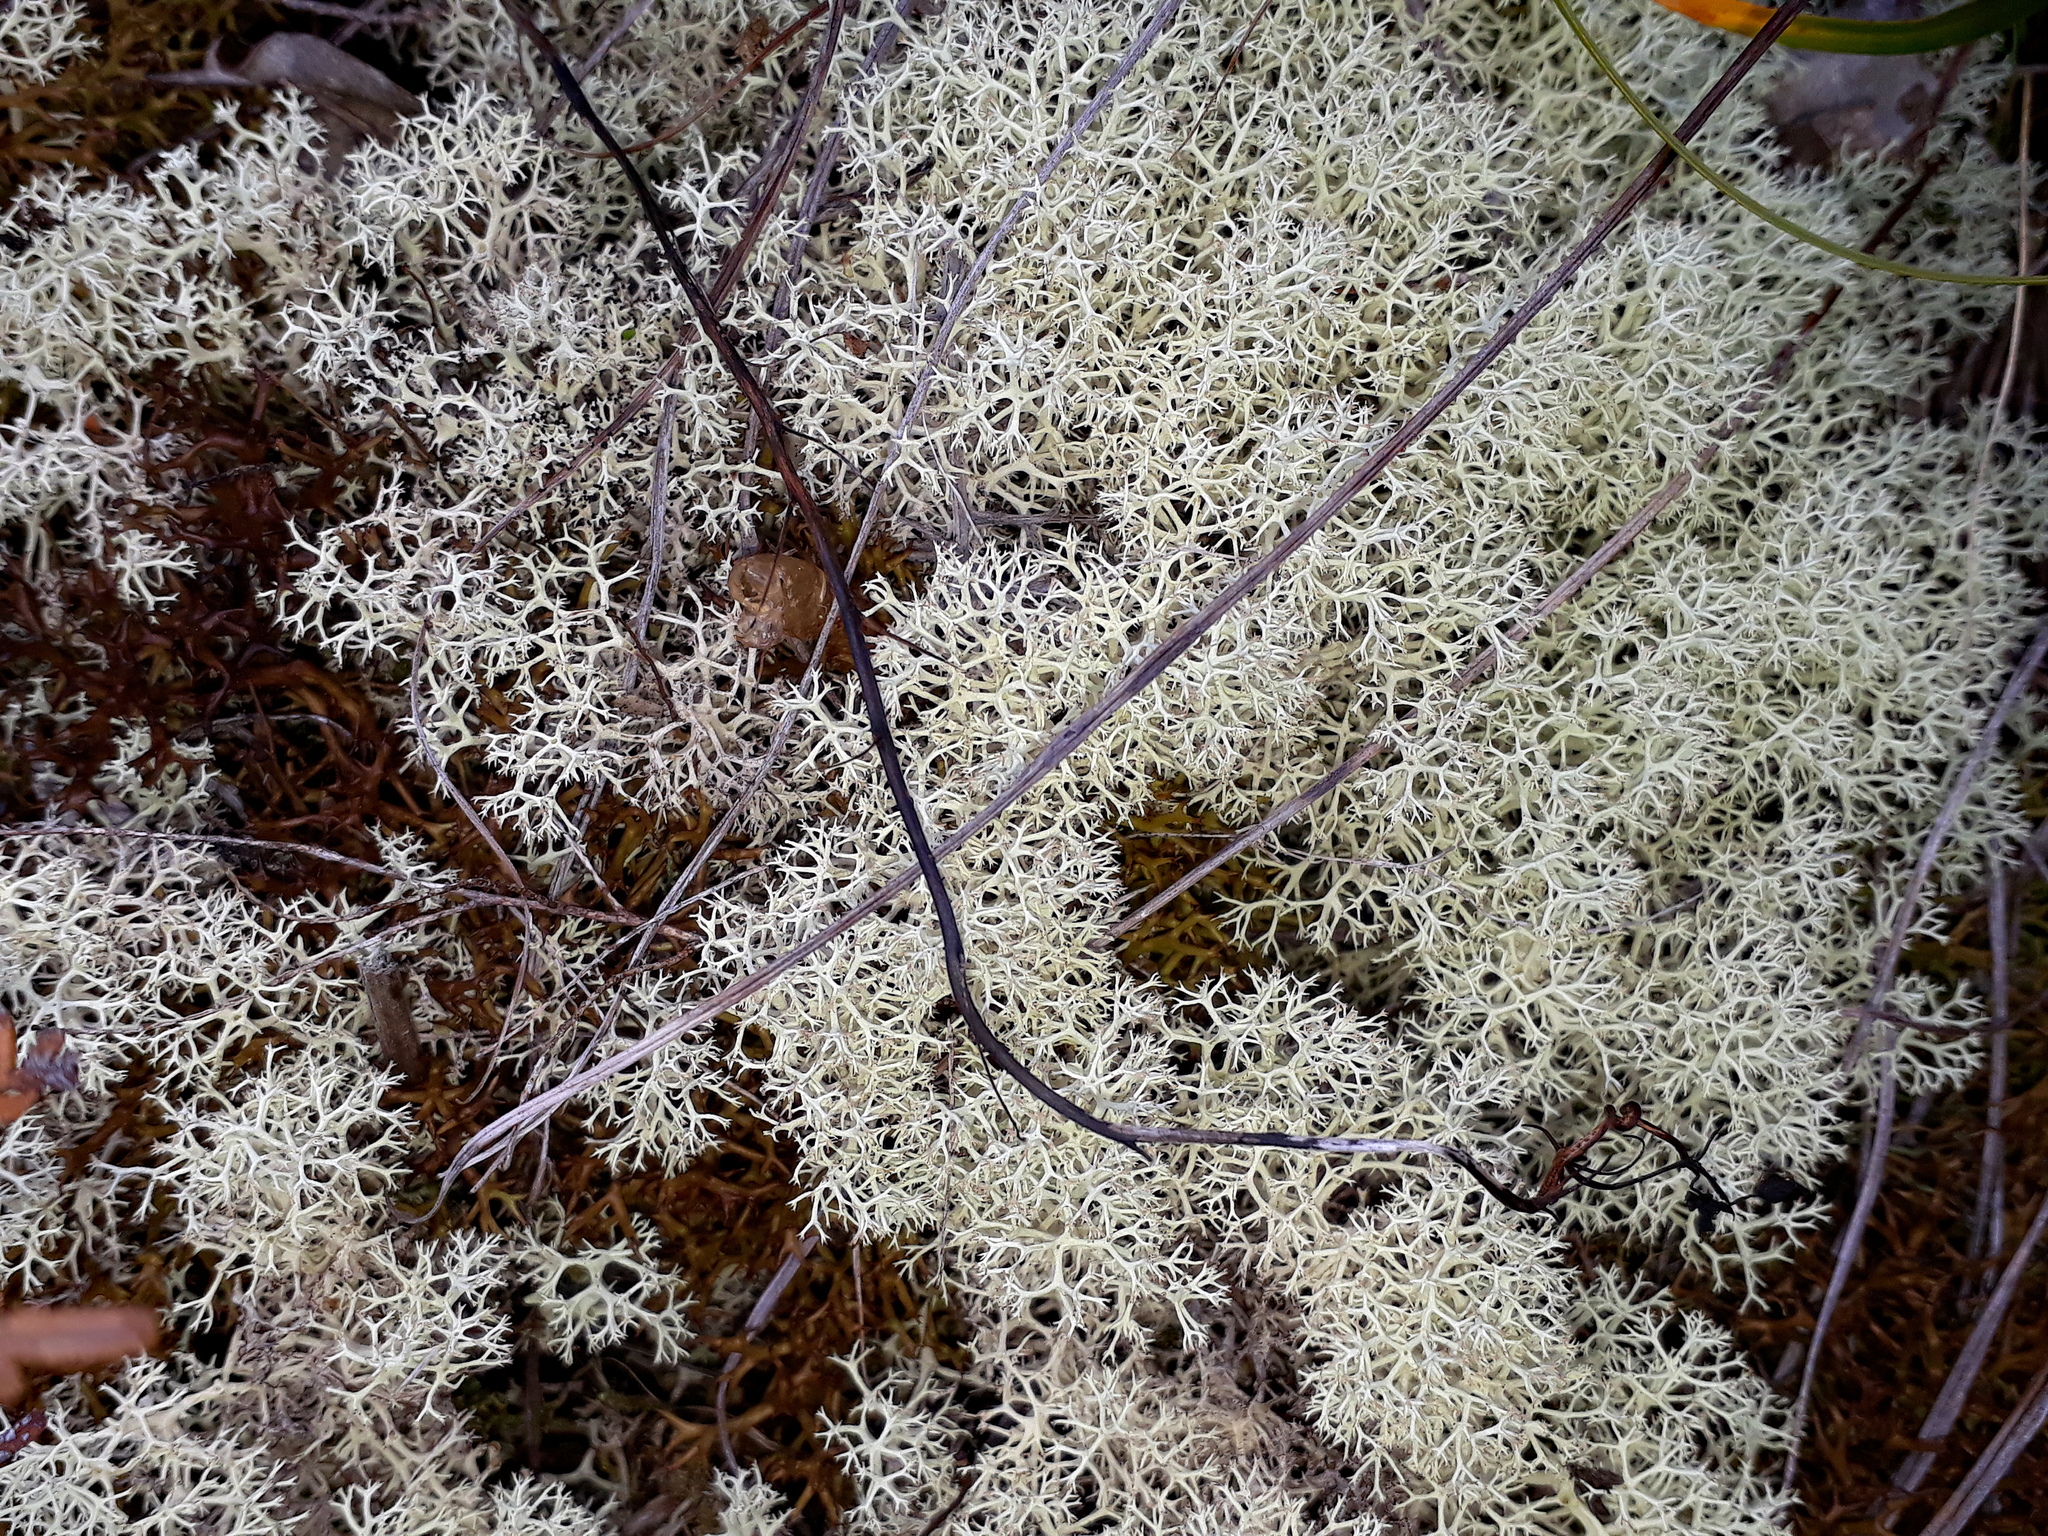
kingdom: Fungi
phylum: Ascomycota
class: Lecanoromycetes
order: Lecanorales
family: Cladoniaceae
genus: Cladonia
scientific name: Cladonia confusa
